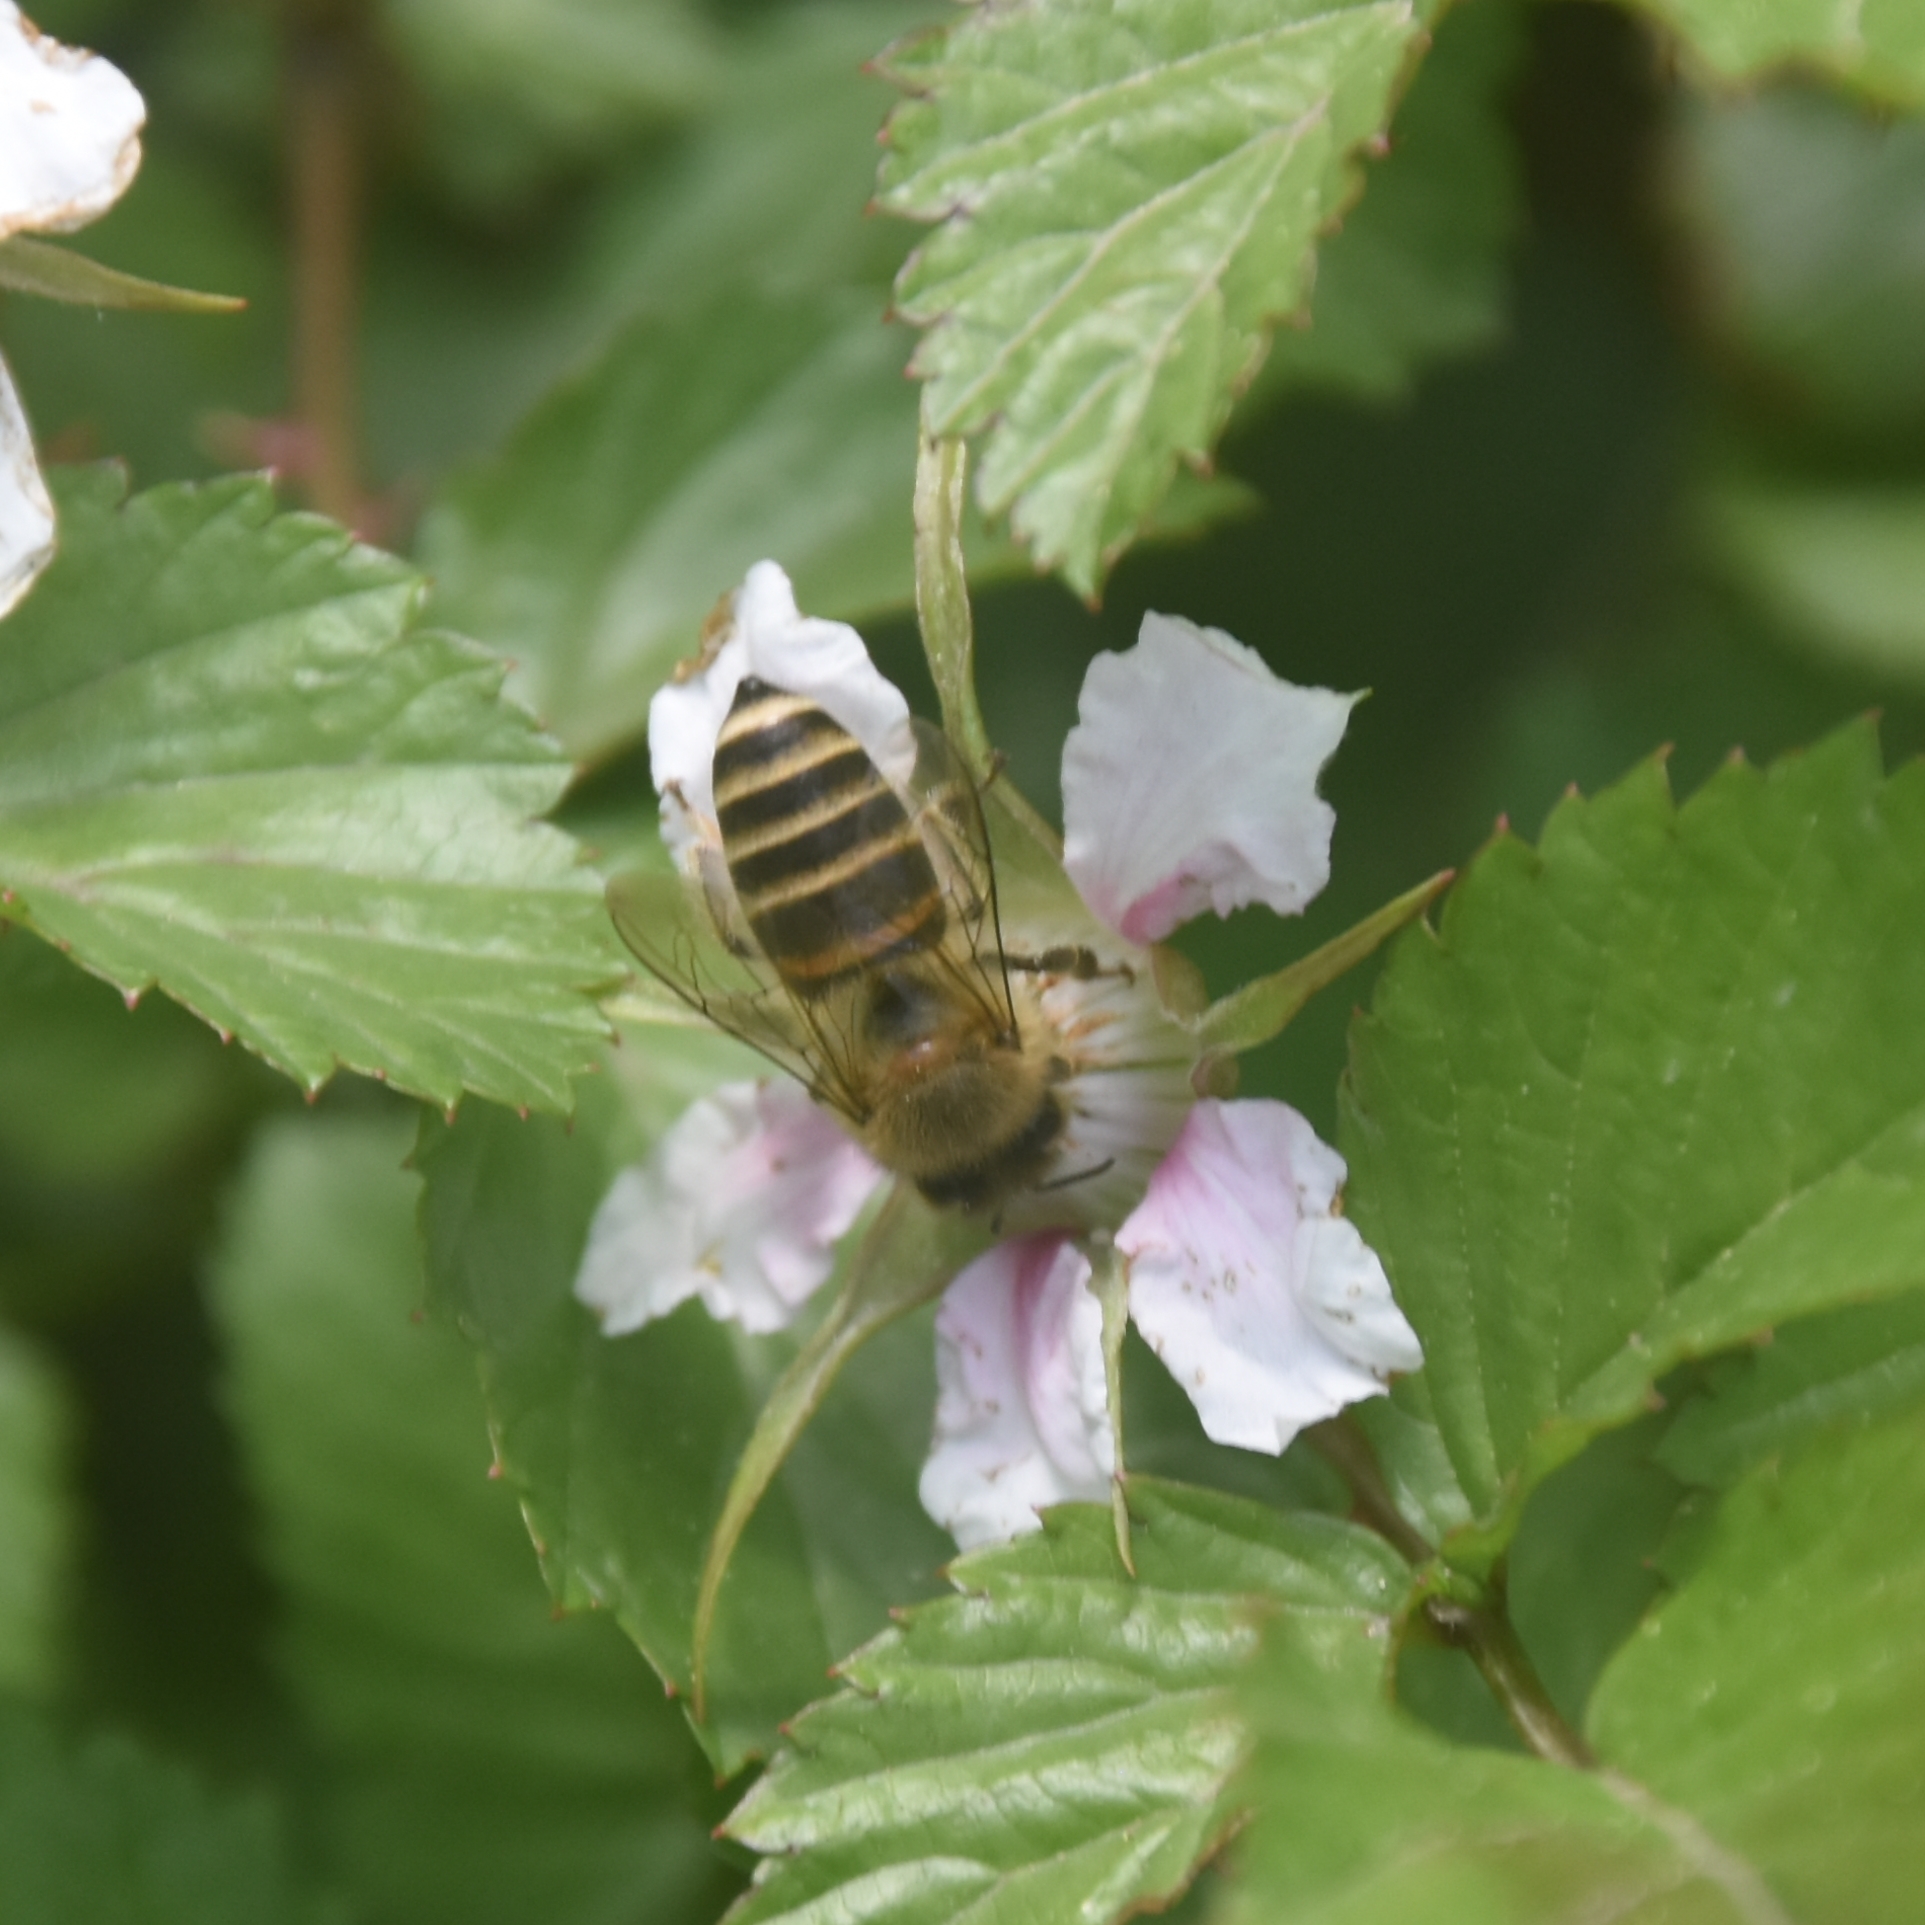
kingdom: Animalia
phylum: Arthropoda
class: Insecta
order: Hymenoptera
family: Apidae
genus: Apis
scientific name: Apis cerana
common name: Honey bee
